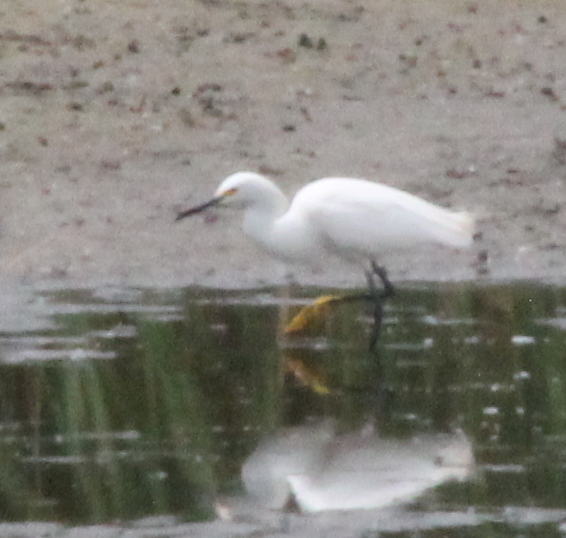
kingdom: Animalia
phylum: Chordata
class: Aves
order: Pelecaniformes
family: Ardeidae
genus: Egretta
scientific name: Egretta thula
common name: Snowy egret
